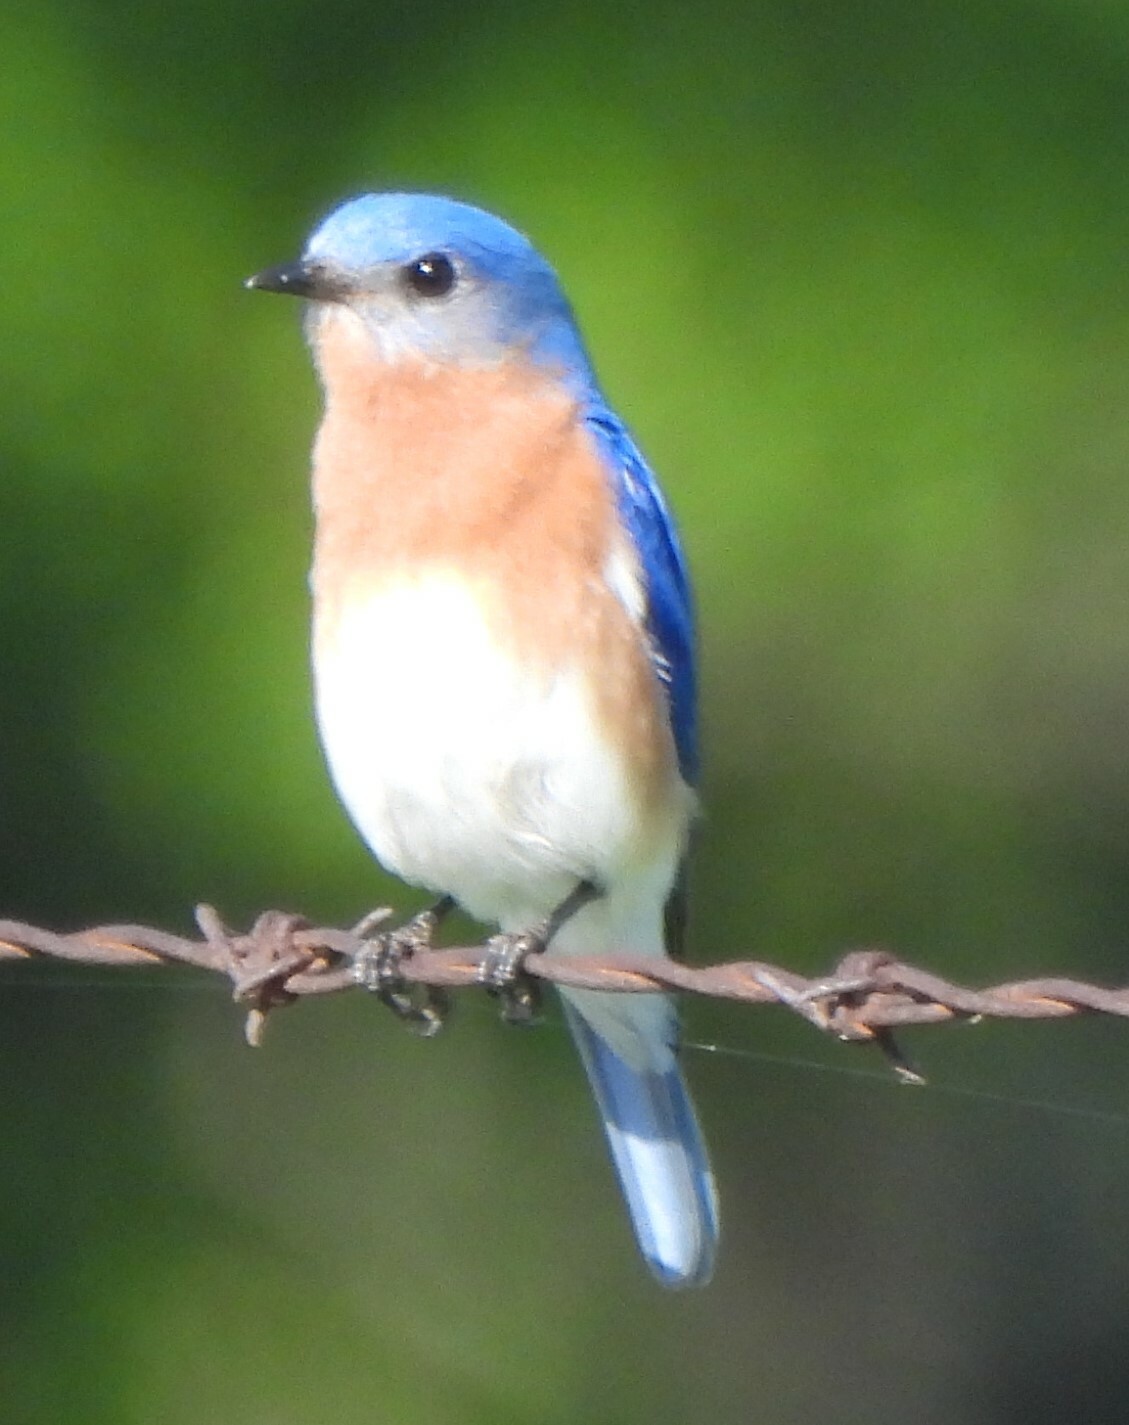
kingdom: Animalia
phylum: Chordata
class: Aves
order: Passeriformes
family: Turdidae
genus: Sialia
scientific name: Sialia sialis
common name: Eastern bluebird
